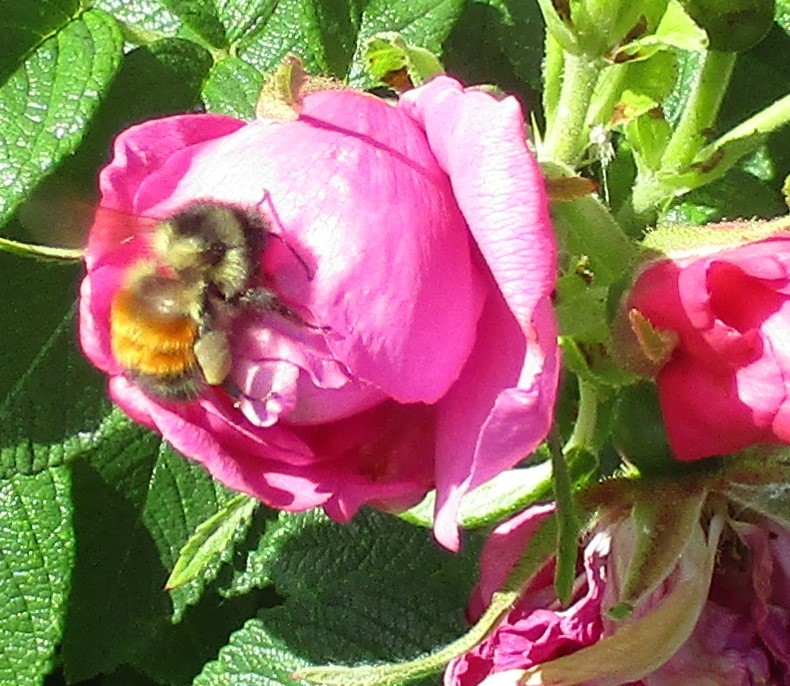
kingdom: Animalia
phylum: Arthropoda
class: Insecta
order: Hymenoptera
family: Apidae
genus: Bombus
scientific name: Bombus melanopygus
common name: Black tail bumble bee
